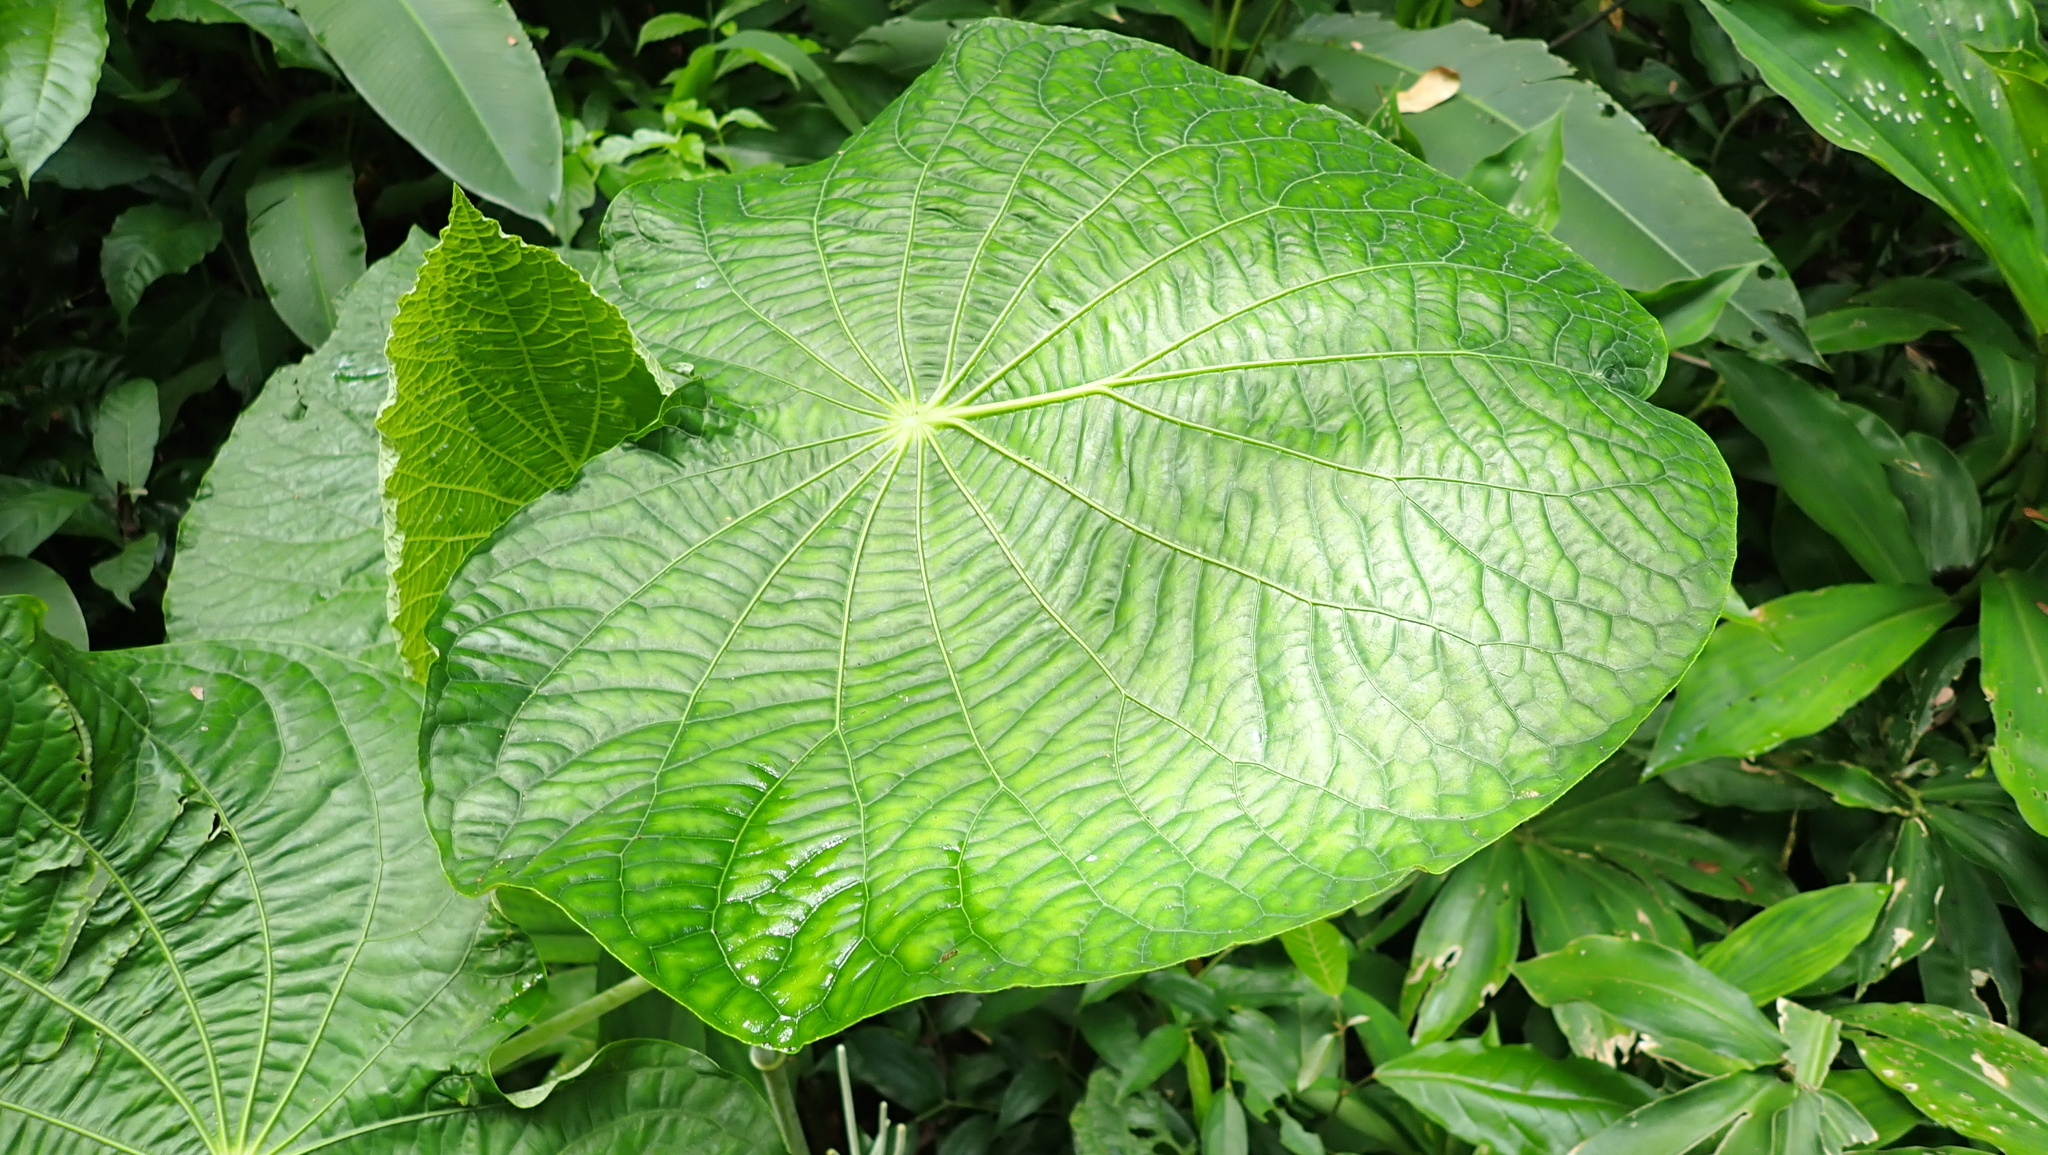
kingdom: Plantae
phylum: Tracheophyta
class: Magnoliopsida
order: Piperales
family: Piperaceae
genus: Piper
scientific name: Piper peltatum
